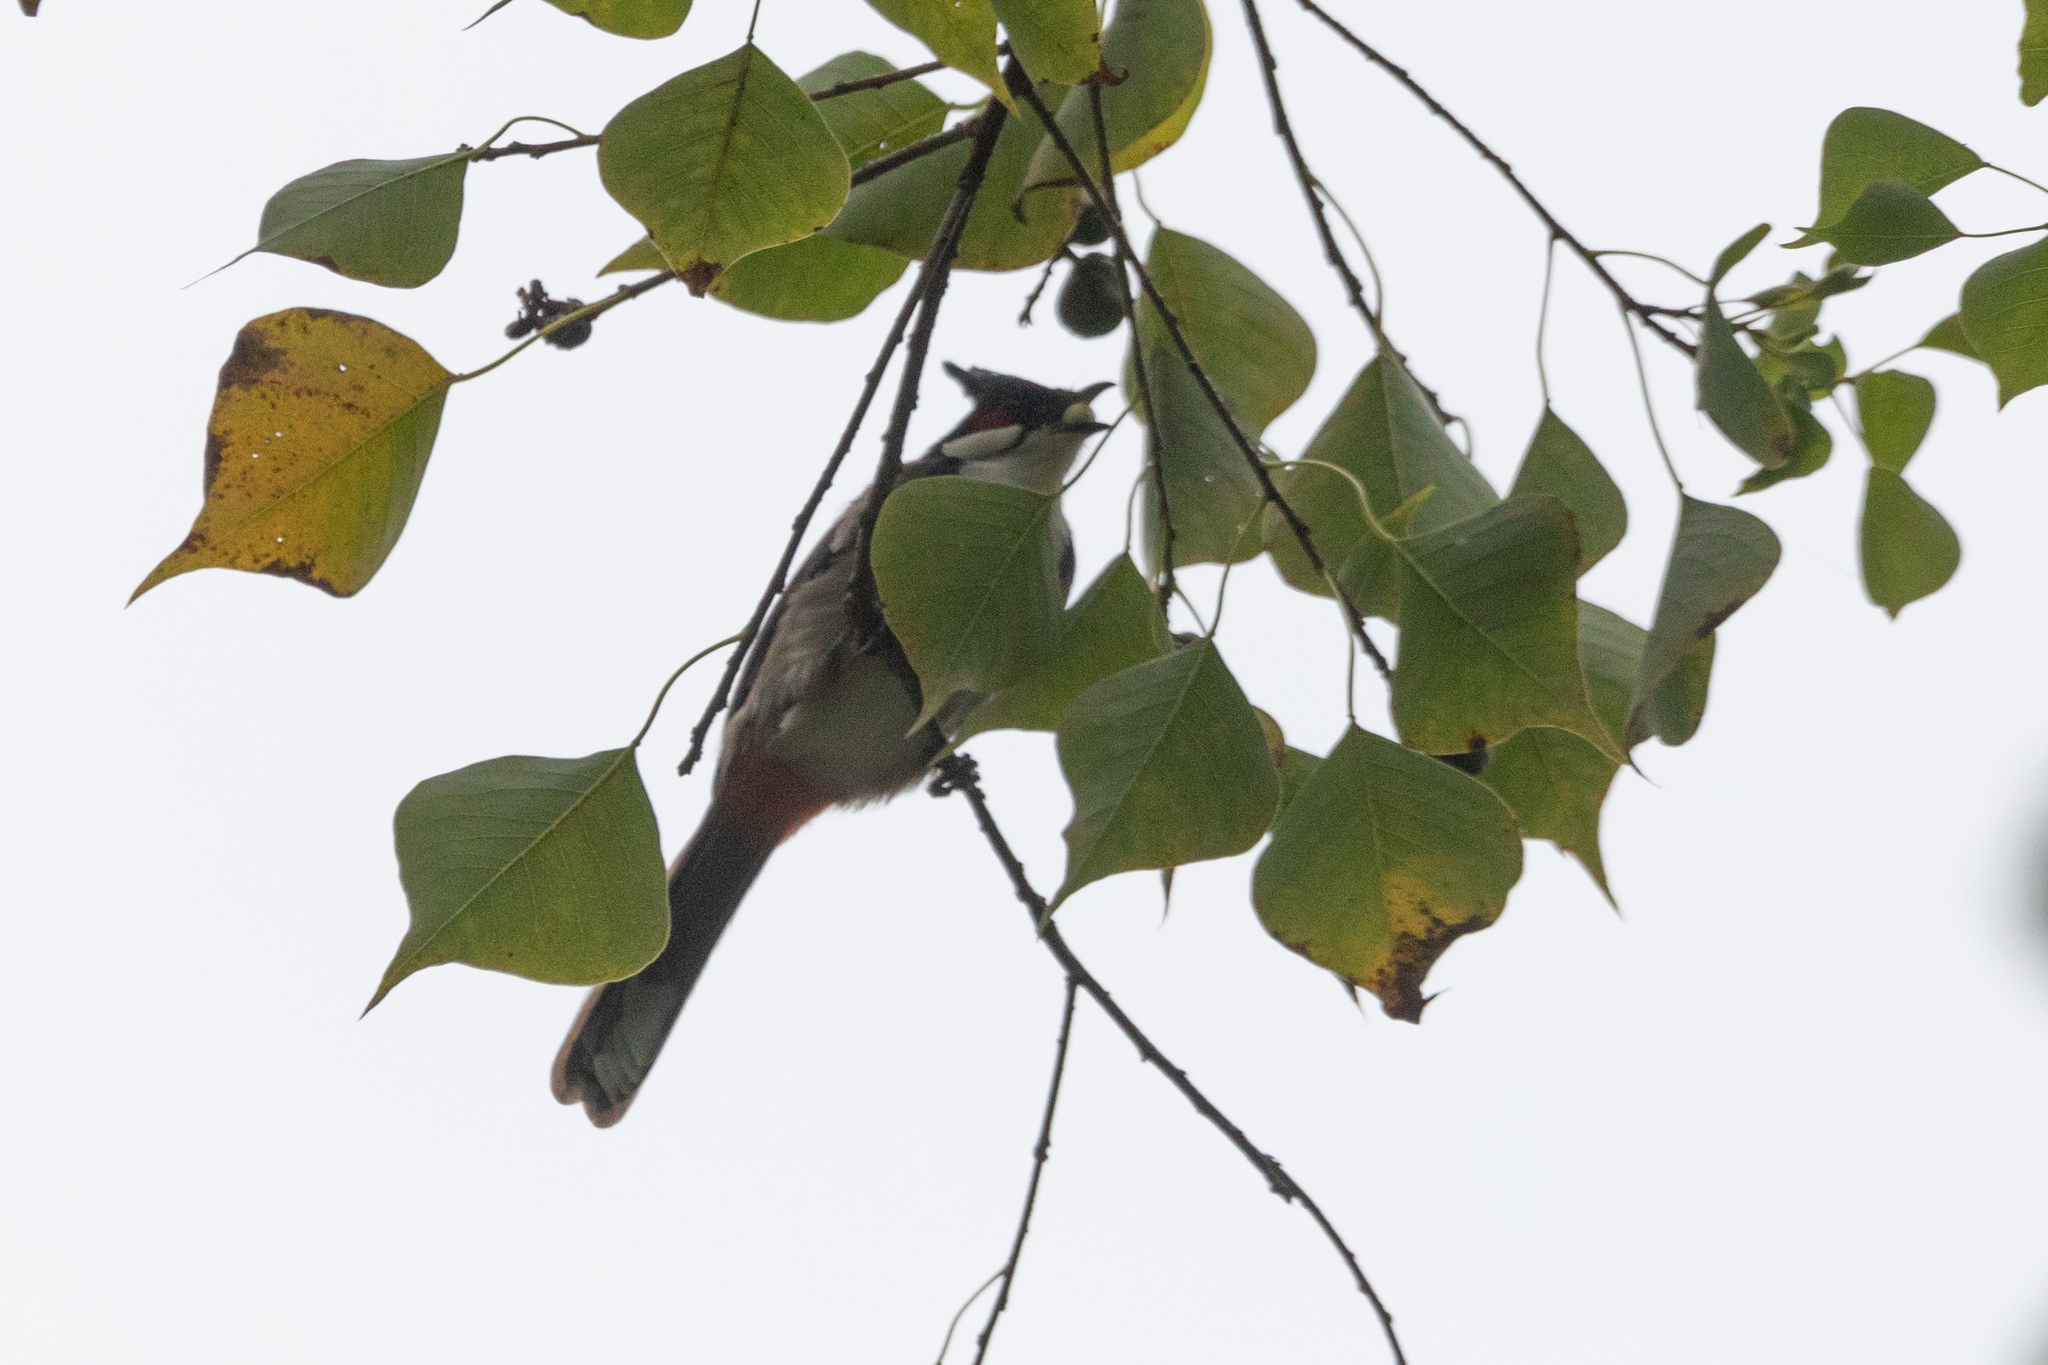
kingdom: Animalia
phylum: Chordata
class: Aves
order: Passeriformes
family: Pycnonotidae
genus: Pycnonotus
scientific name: Pycnonotus jocosus
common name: Red-whiskered bulbul
